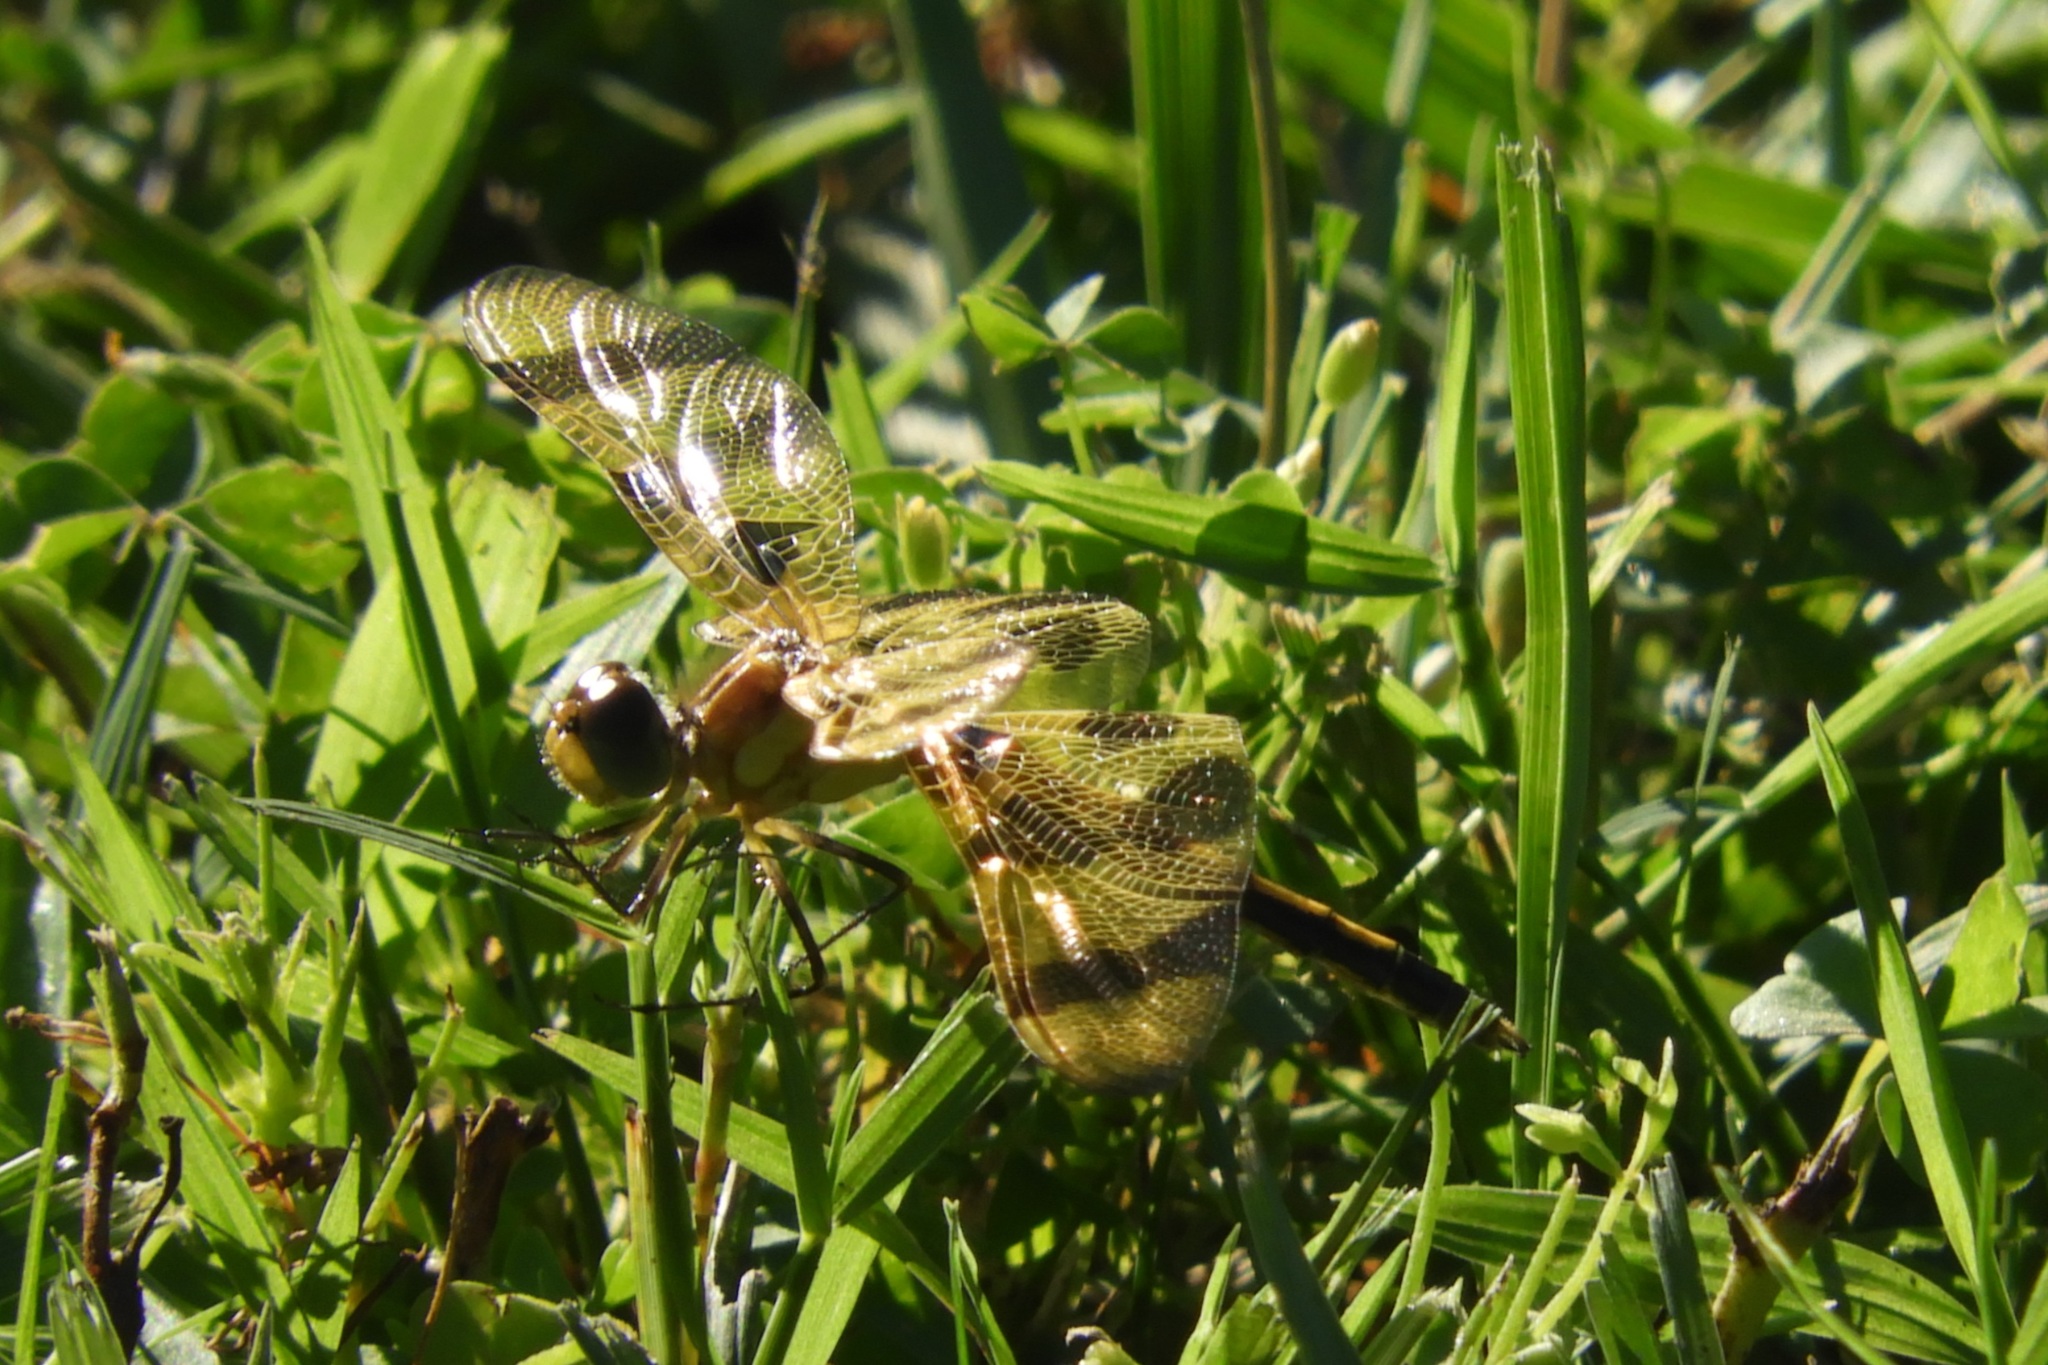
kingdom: Animalia
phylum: Arthropoda
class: Insecta
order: Odonata
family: Libellulidae
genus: Celithemis
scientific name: Celithemis eponina
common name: Halloween pennant
